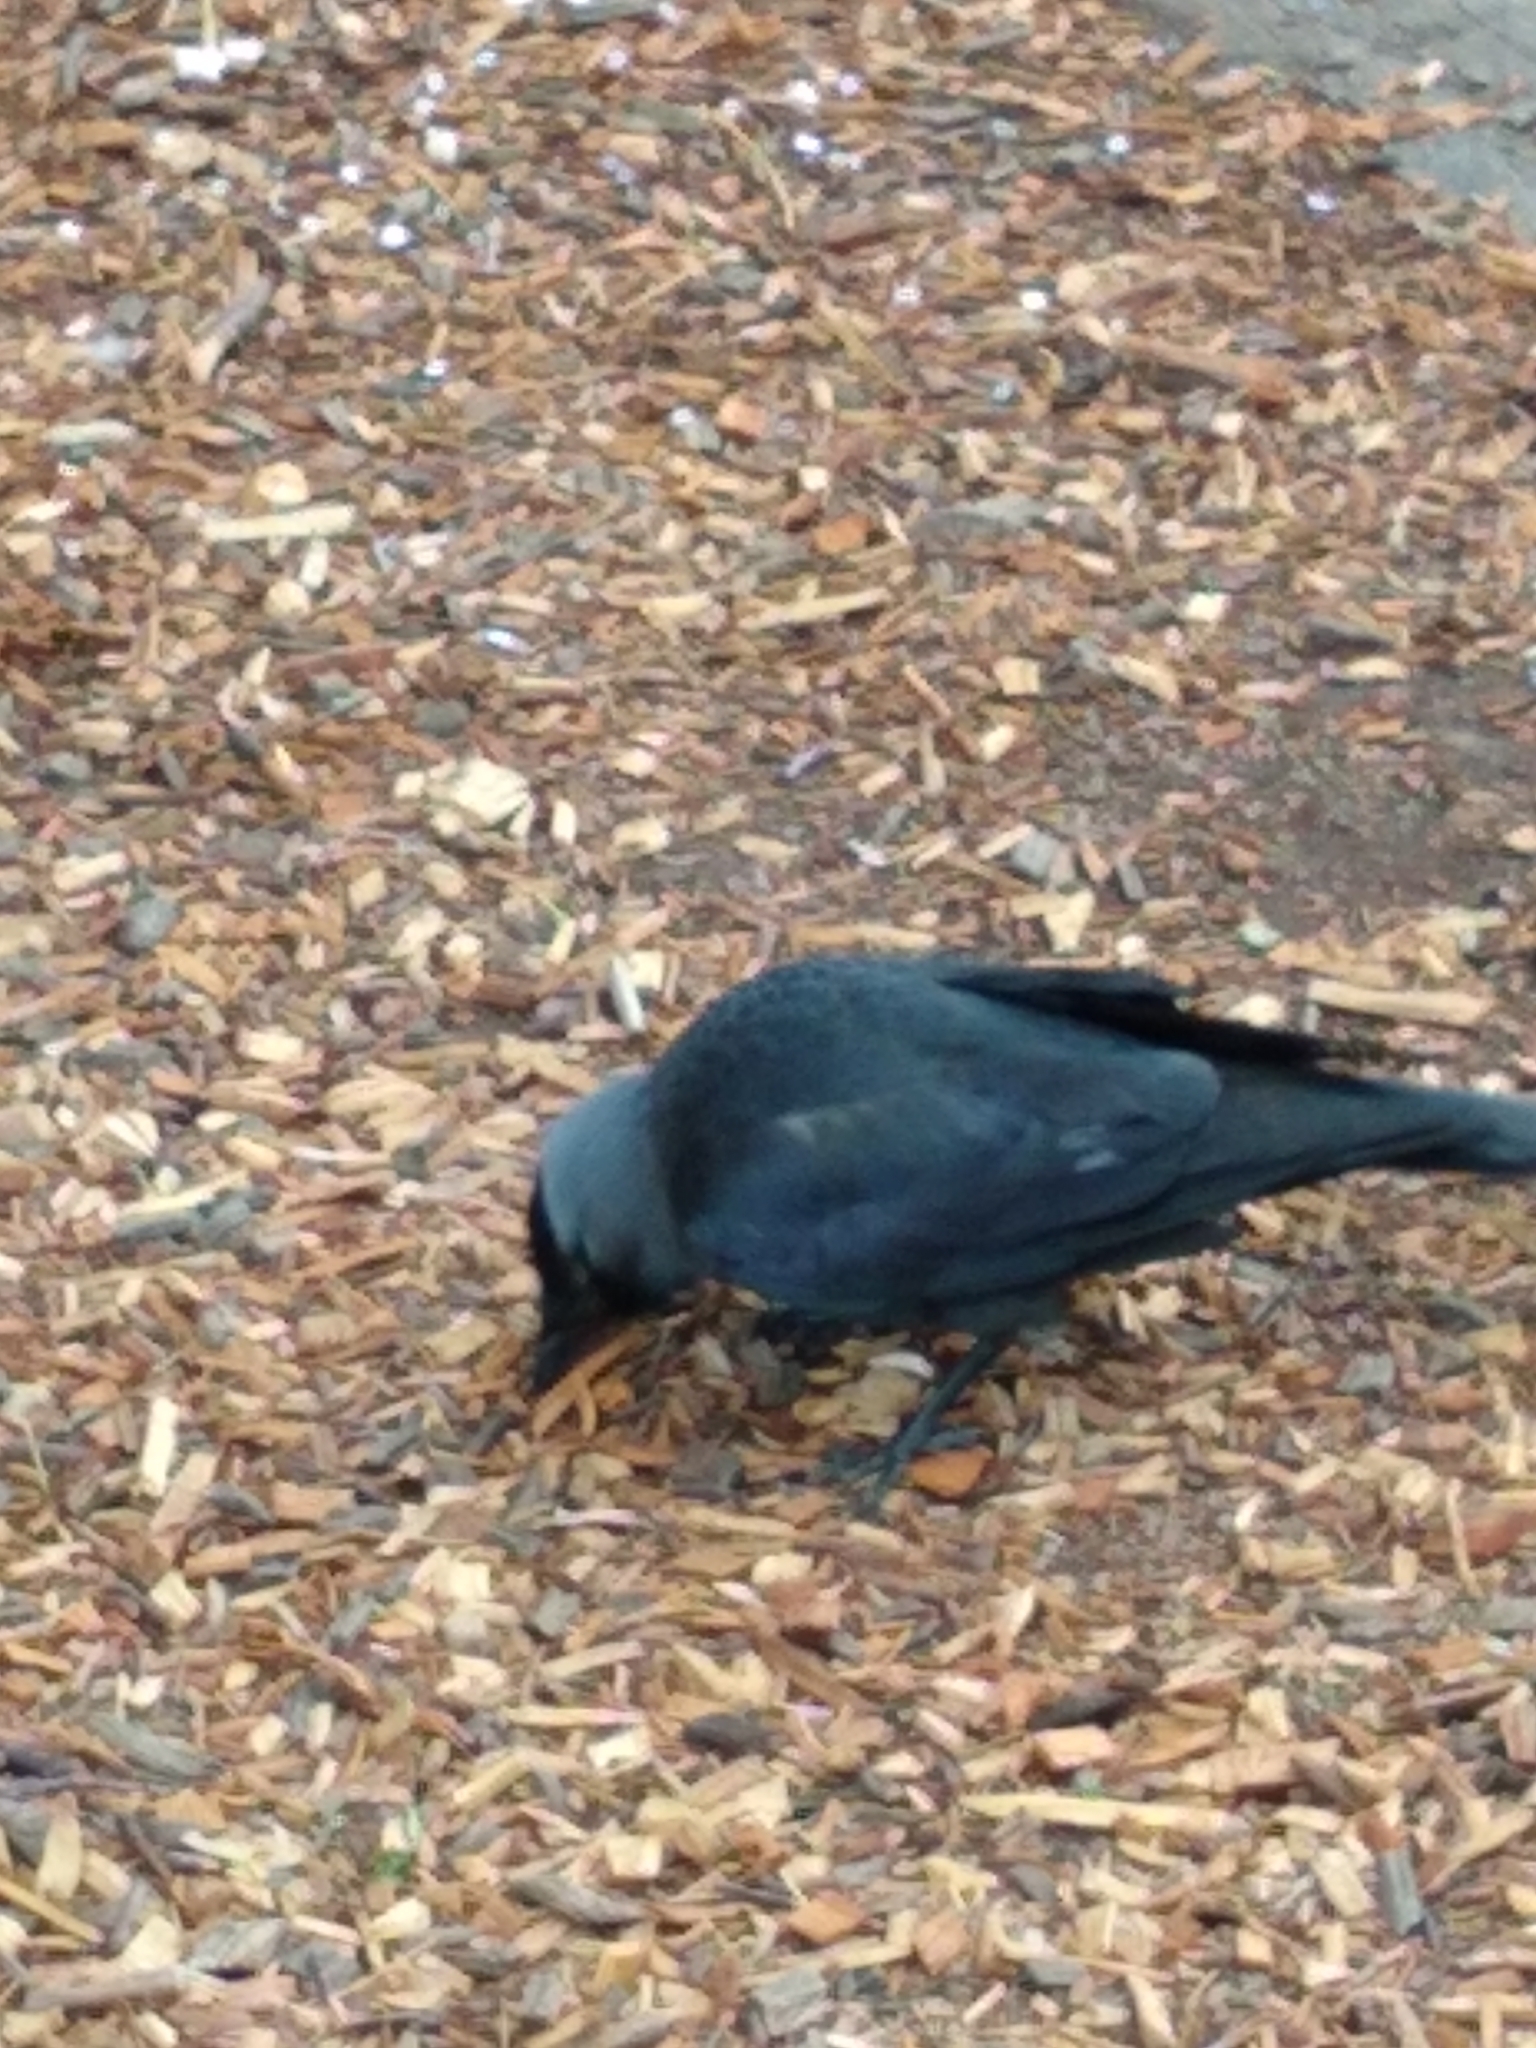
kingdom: Animalia
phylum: Chordata
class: Aves
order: Passeriformes
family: Corvidae
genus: Coloeus
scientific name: Coloeus monedula
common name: Western jackdaw
